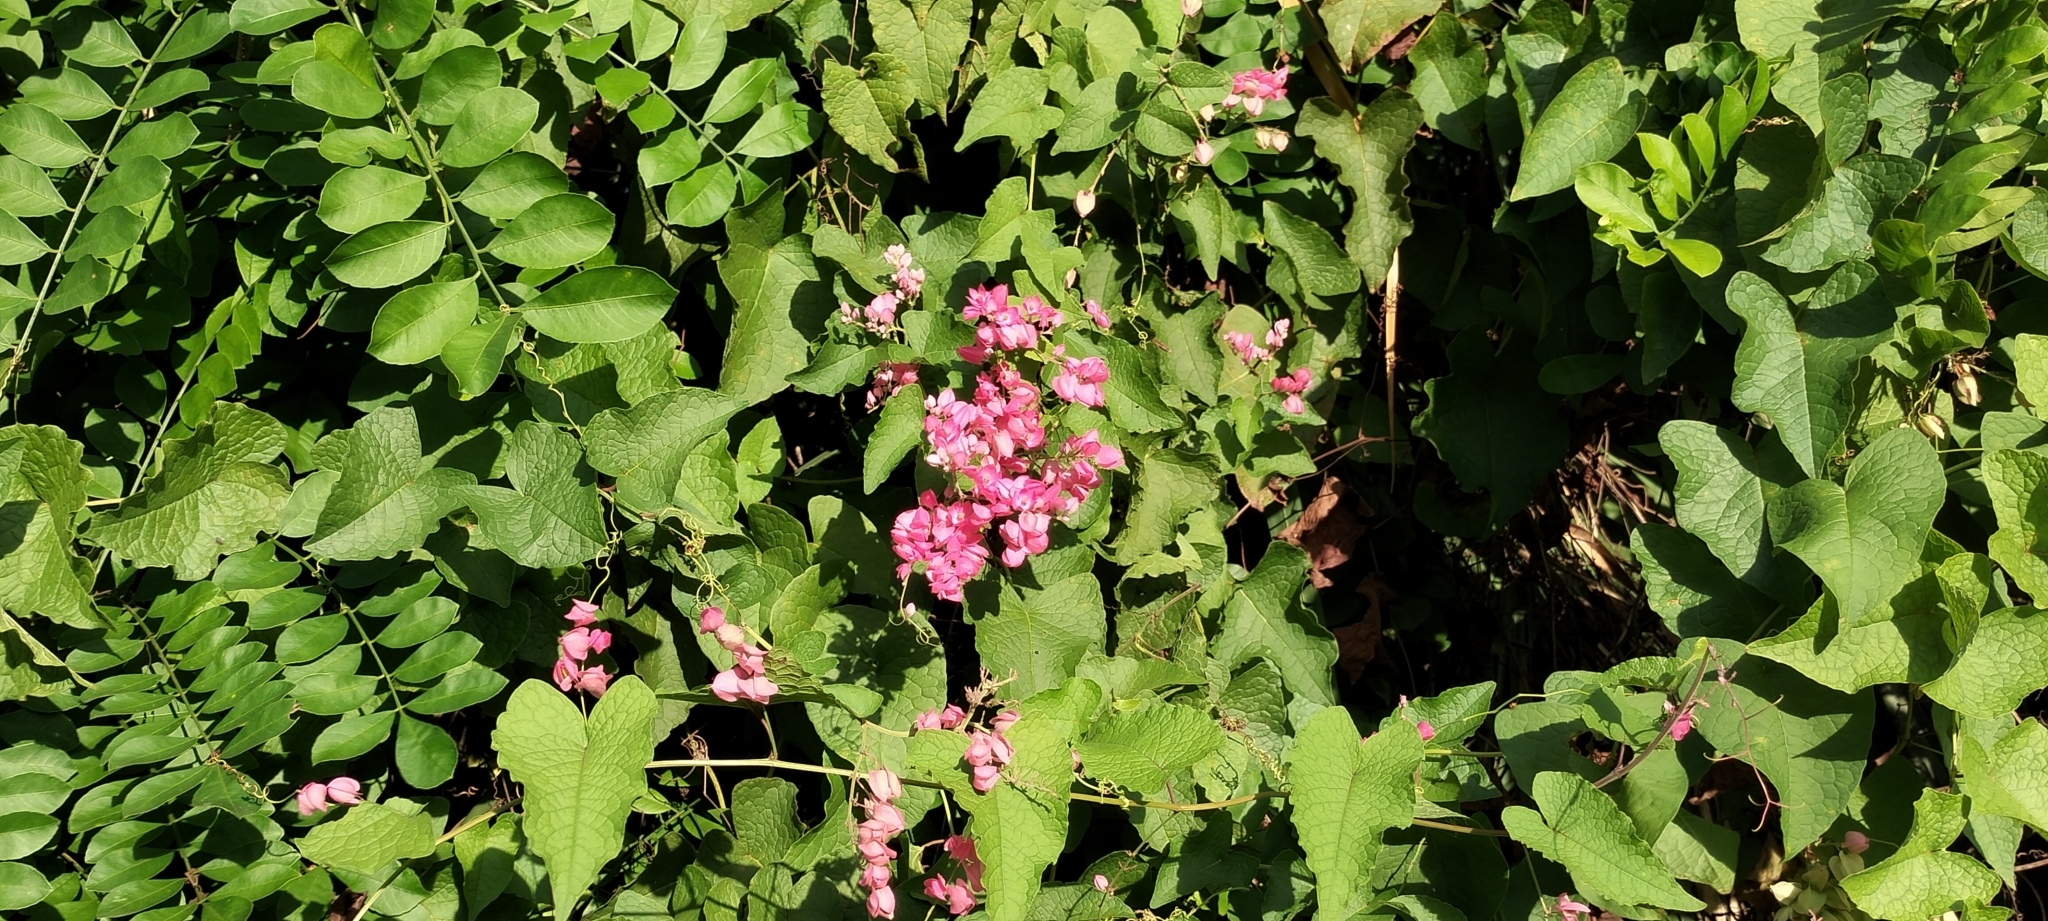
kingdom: Plantae
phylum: Tracheophyta
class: Magnoliopsida
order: Caryophyllales
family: Polygonaceae
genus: Antigonon
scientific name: Antigonon leptopus
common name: Coral vine
